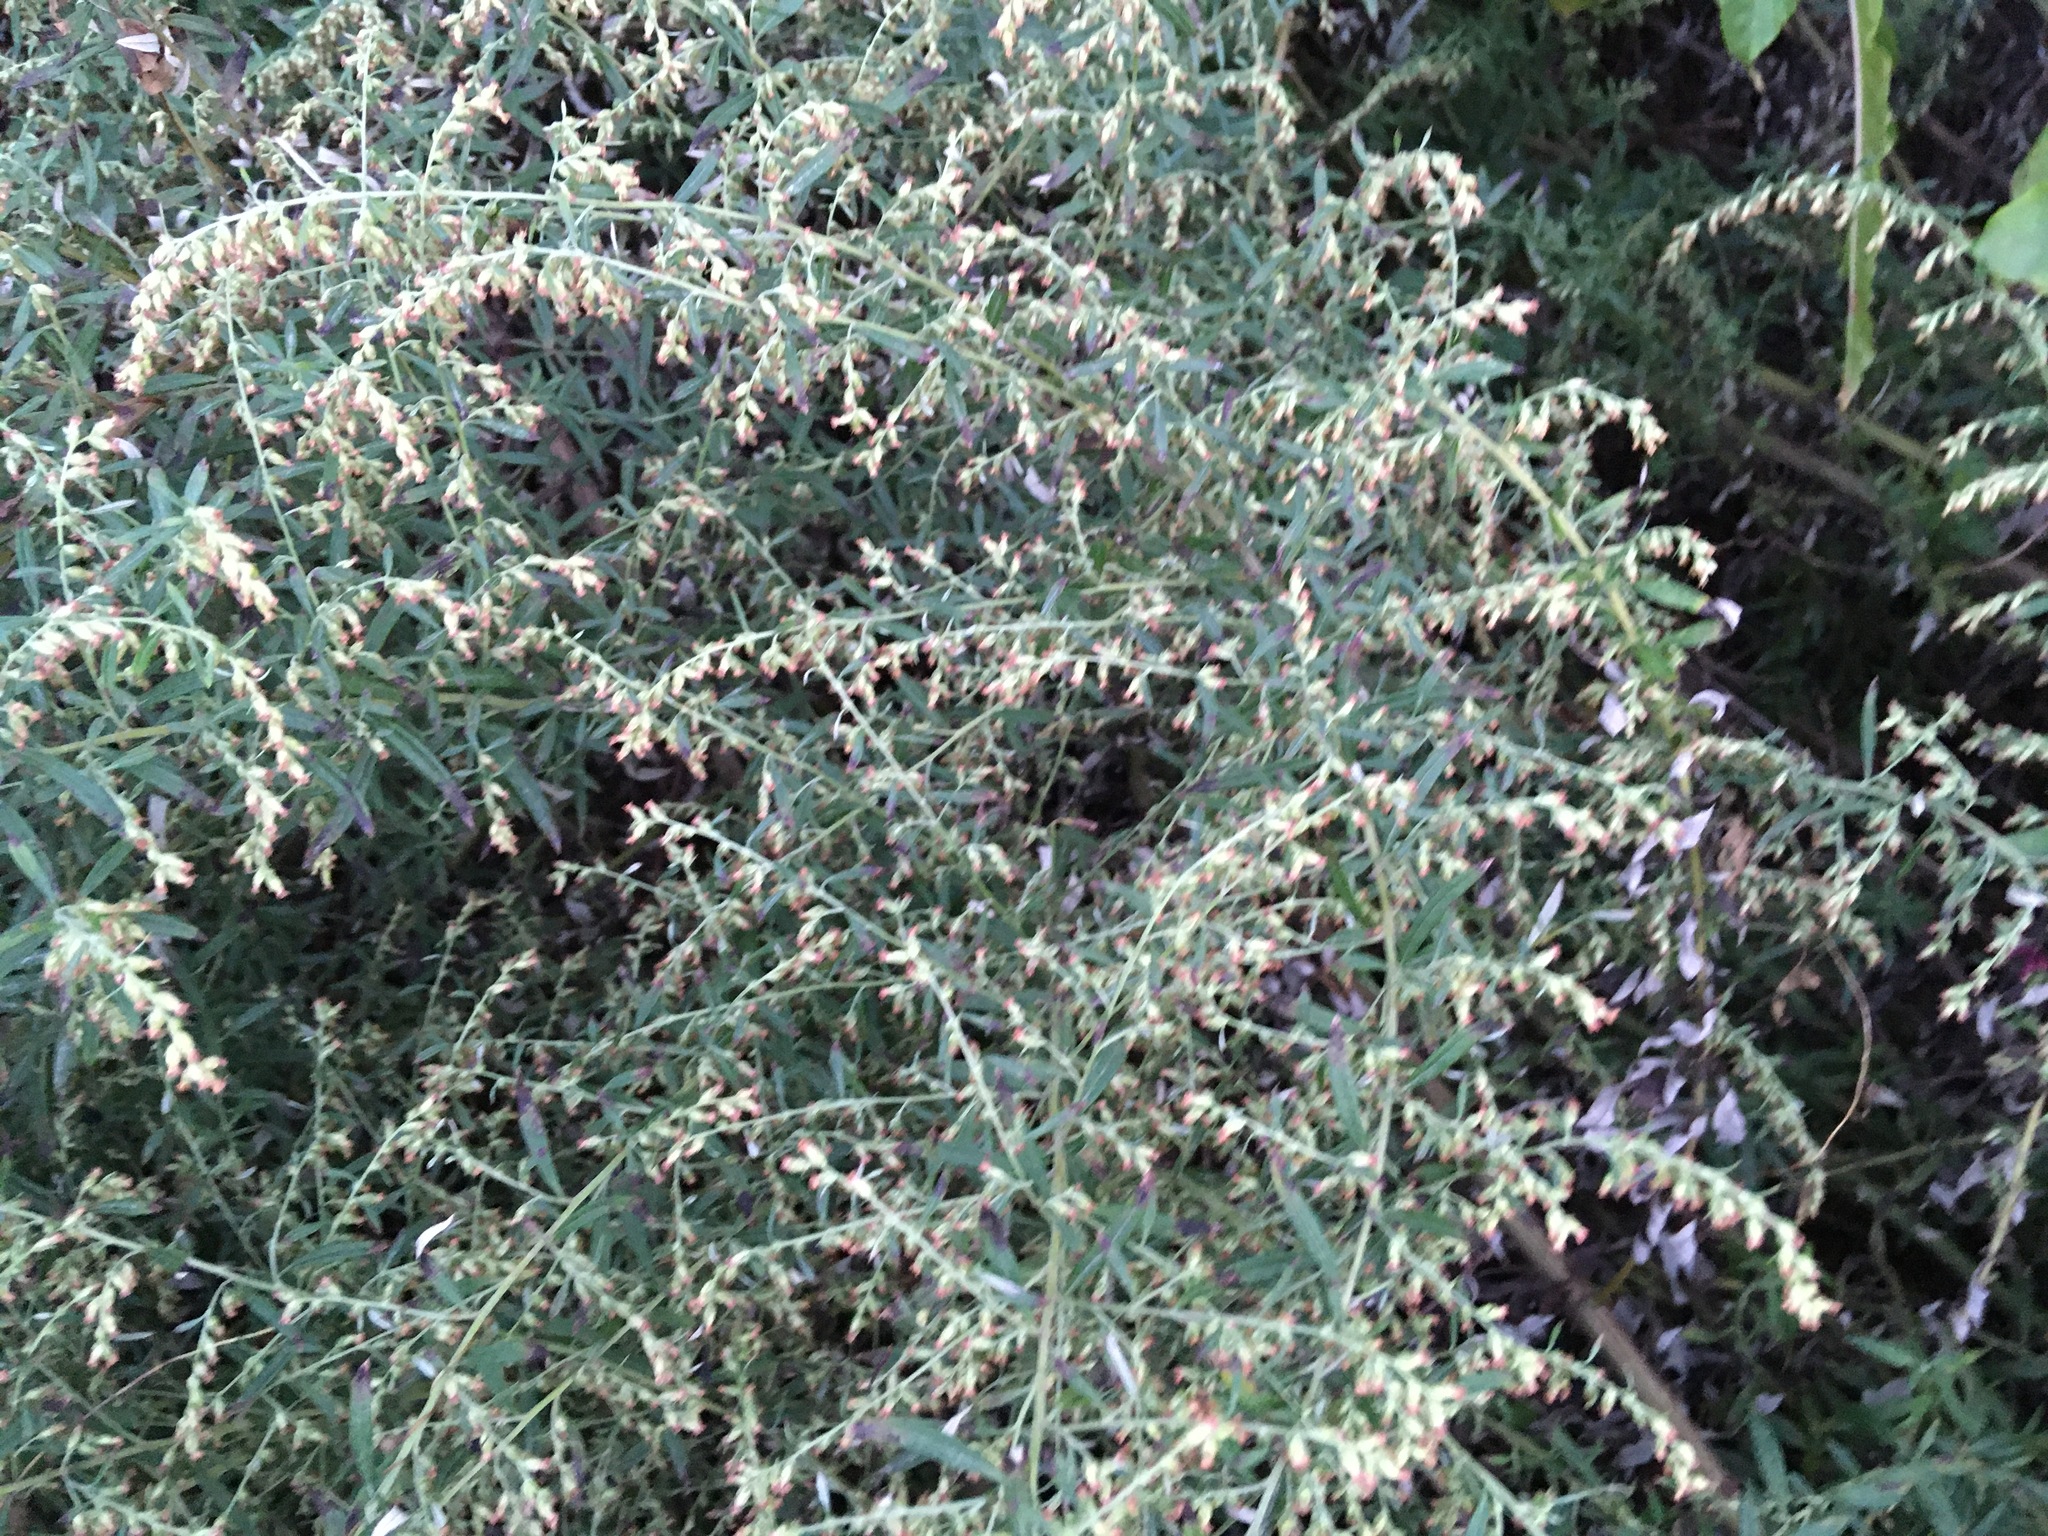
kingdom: Plantae
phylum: Tracheophyta
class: Magnoliopsida
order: Asterales
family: Asteraceae
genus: Artemisia
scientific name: Artemisia vulgaris
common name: Mugwort
